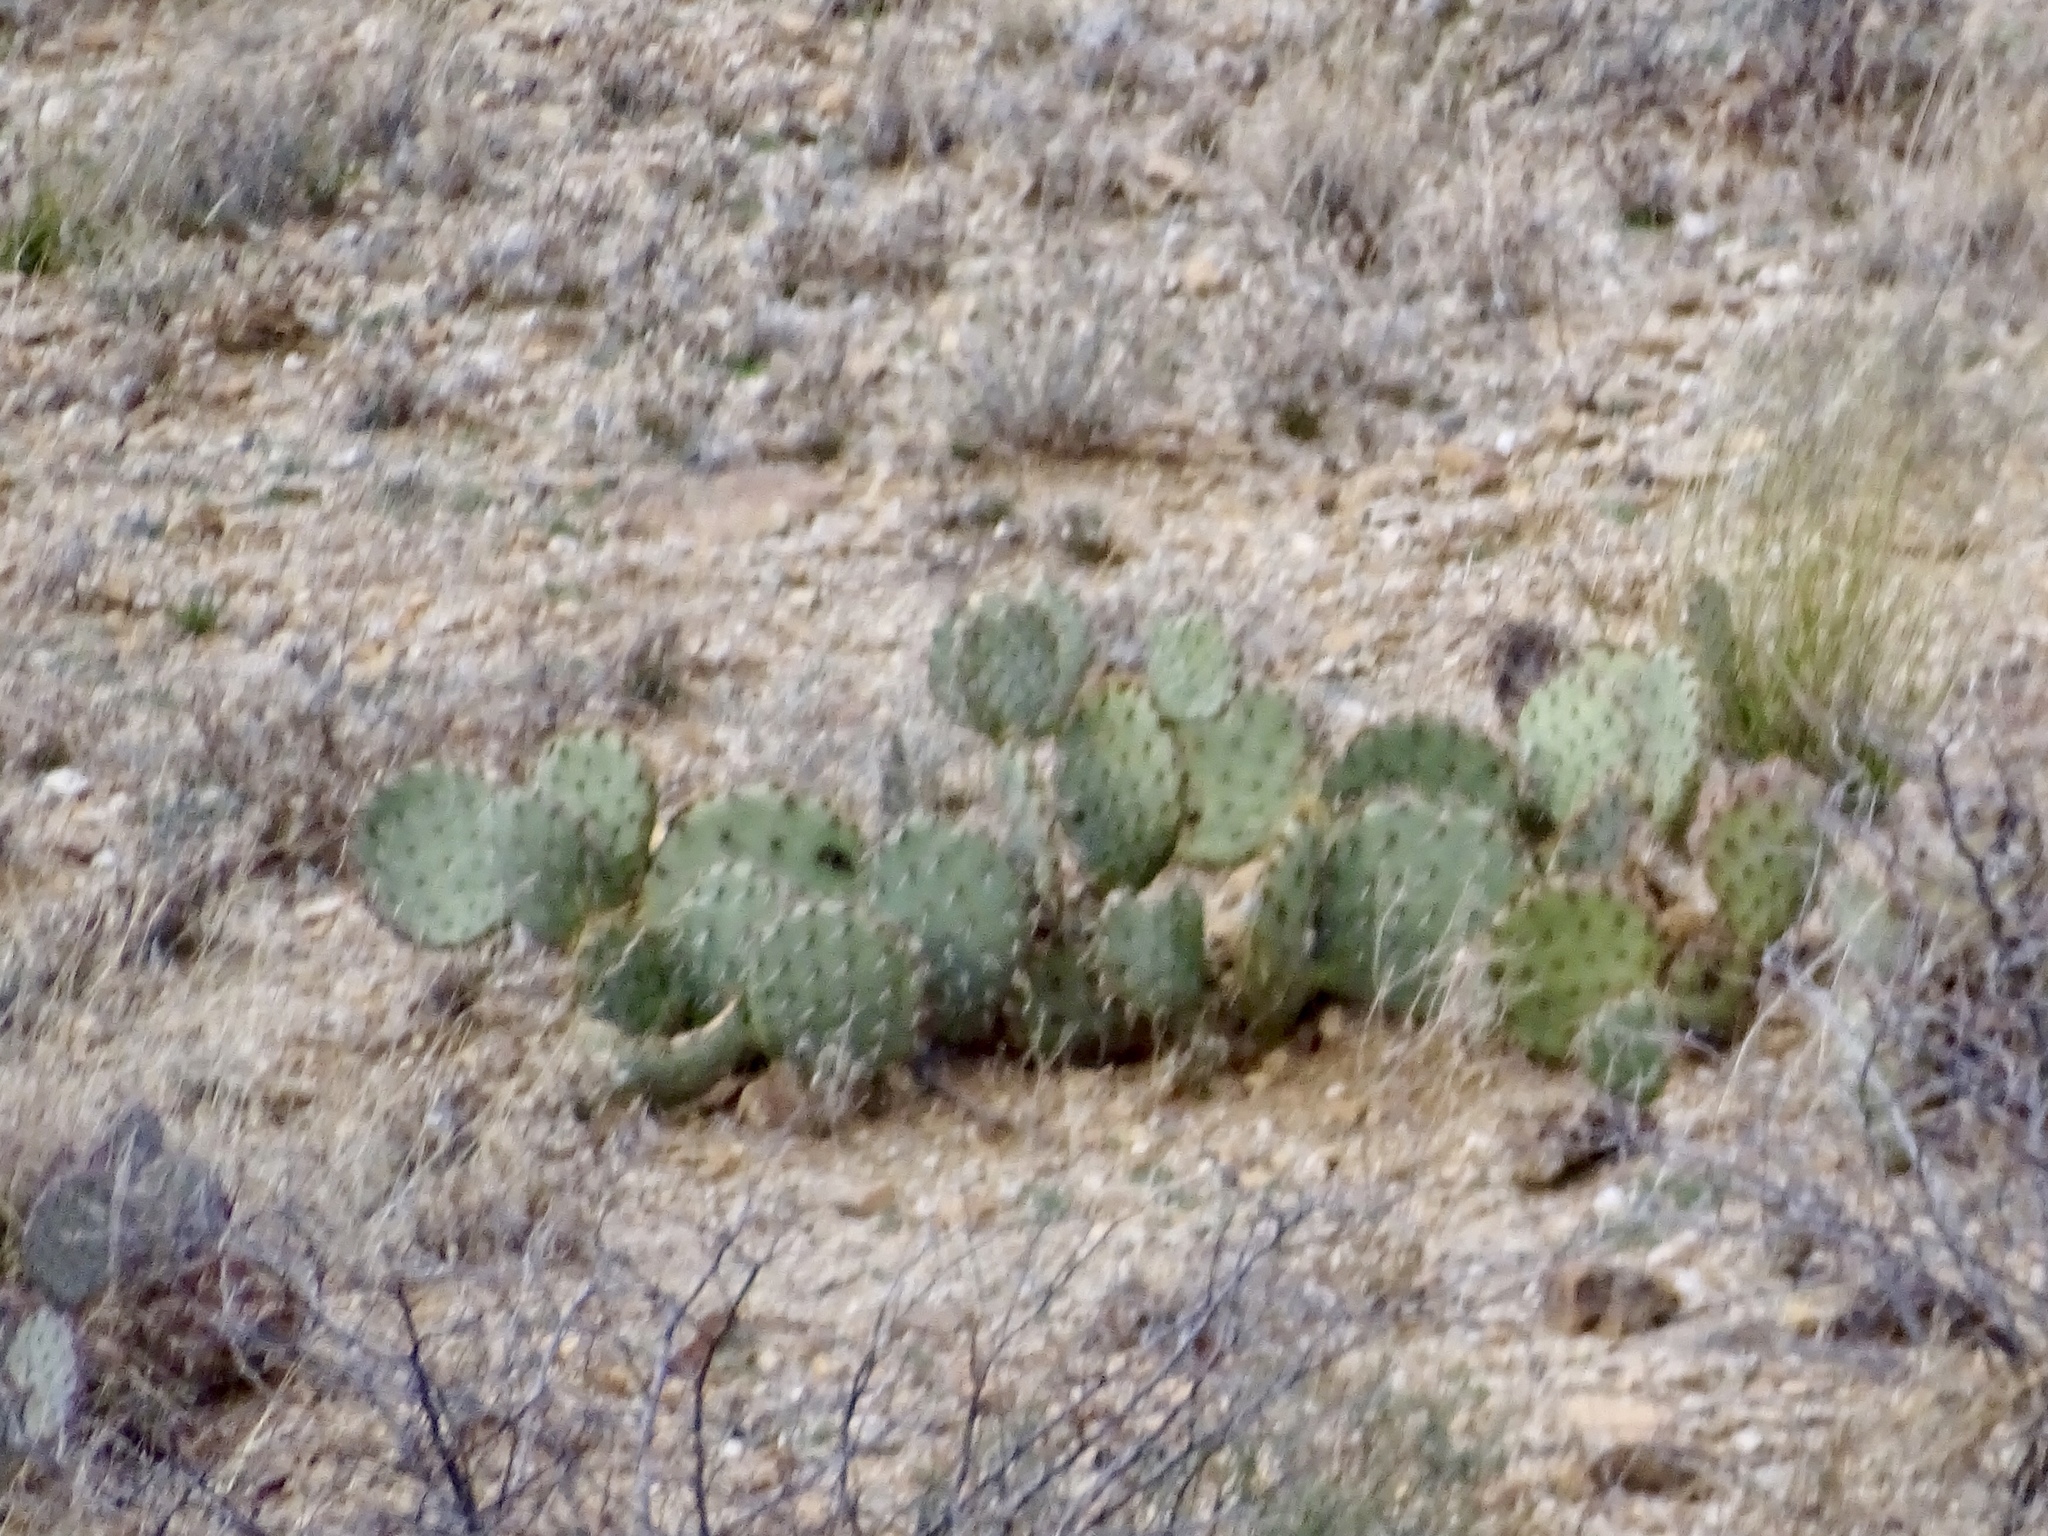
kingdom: Plantae
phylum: Tracheophyta
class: Magnoliopsida
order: Caryophyllales
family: Cactaceae
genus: Opuntia
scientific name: Opuntia engelmannii
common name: Cactus-apple
